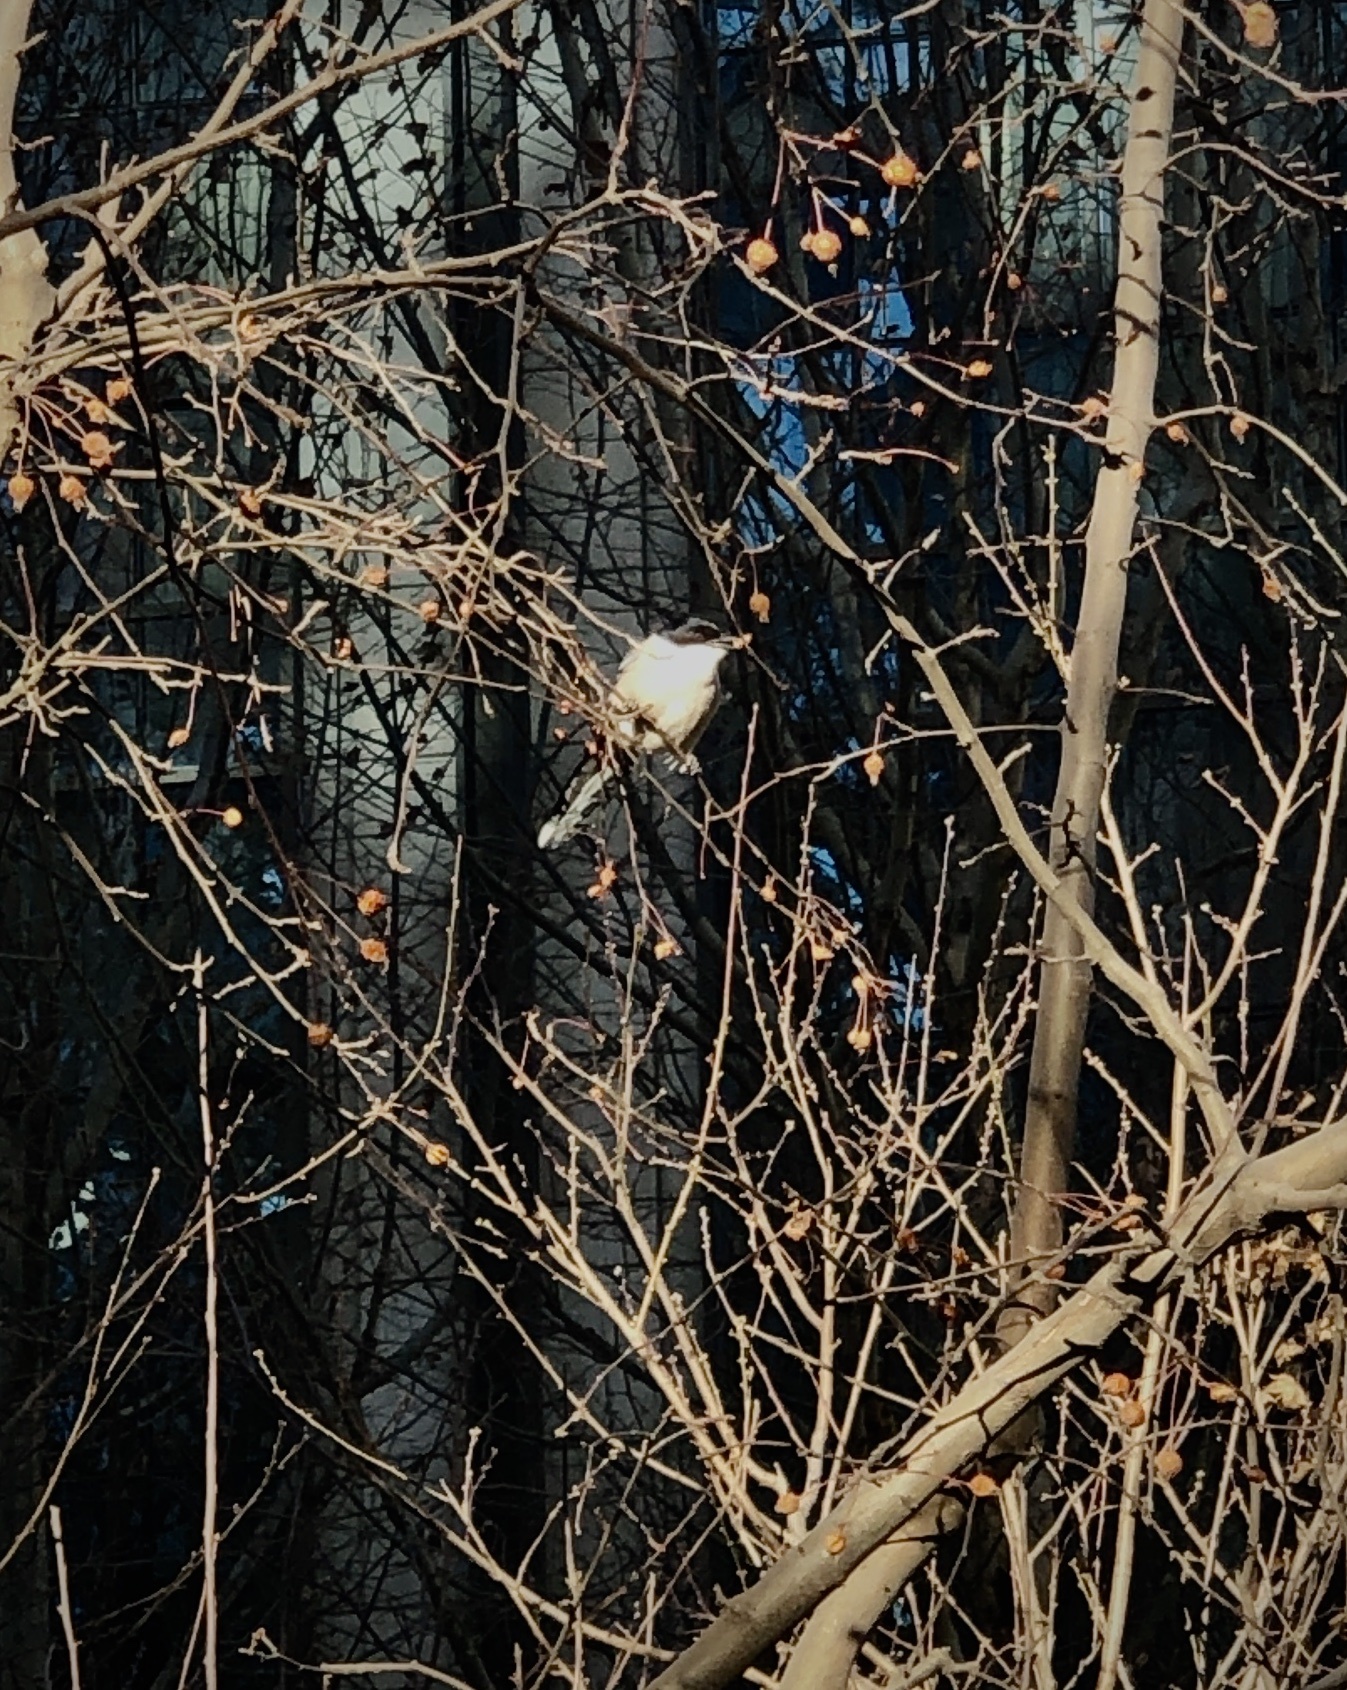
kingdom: Animalia
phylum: Chordata
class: Aves
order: Passeriformes
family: Corvidae
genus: Cyanopica
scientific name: Cyanopica cyanus
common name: Azure-winged magpie
